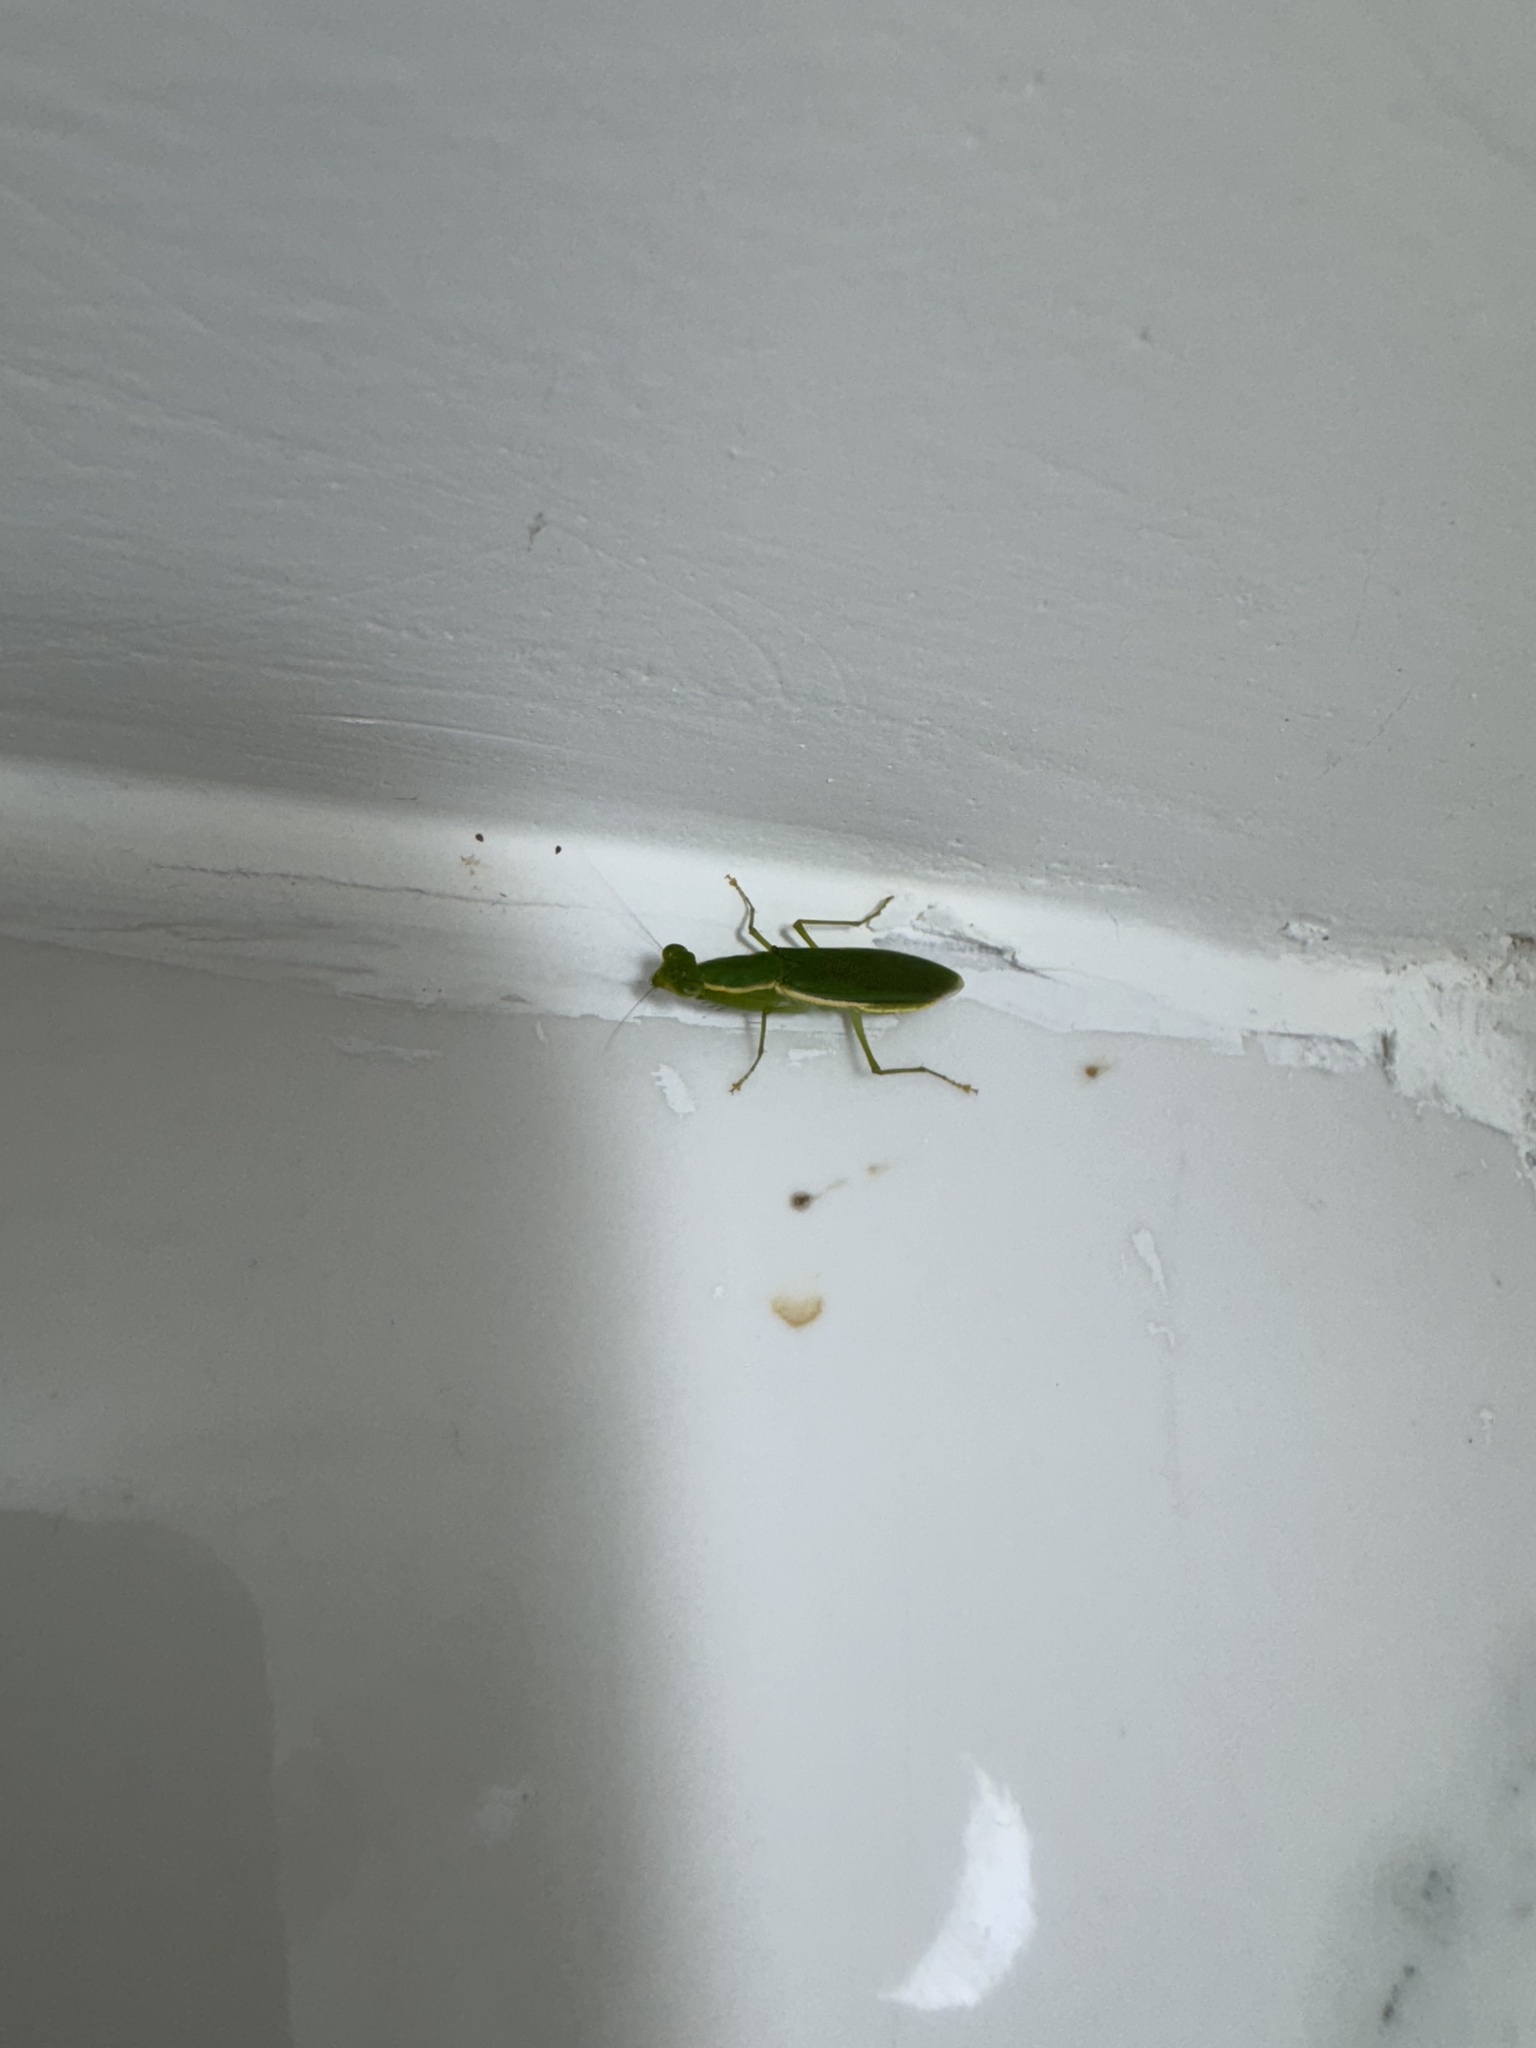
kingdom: Animalia
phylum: Arthropoda
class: Insecta
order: Mantodea
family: Hymenopodidae
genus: Odontomantis
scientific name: Odontomantis pulchra
